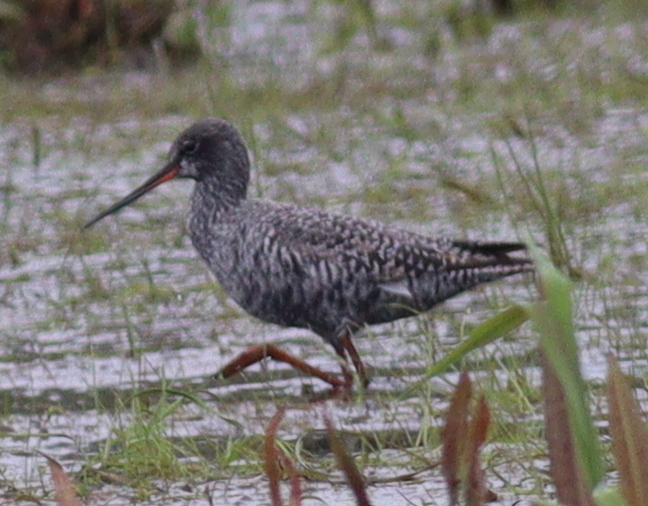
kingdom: Animalia
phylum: Chordata
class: Aves
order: Charadriiformes
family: Scolopacidae
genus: Tringa
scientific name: Tringa erythropus
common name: Spotted redshank
